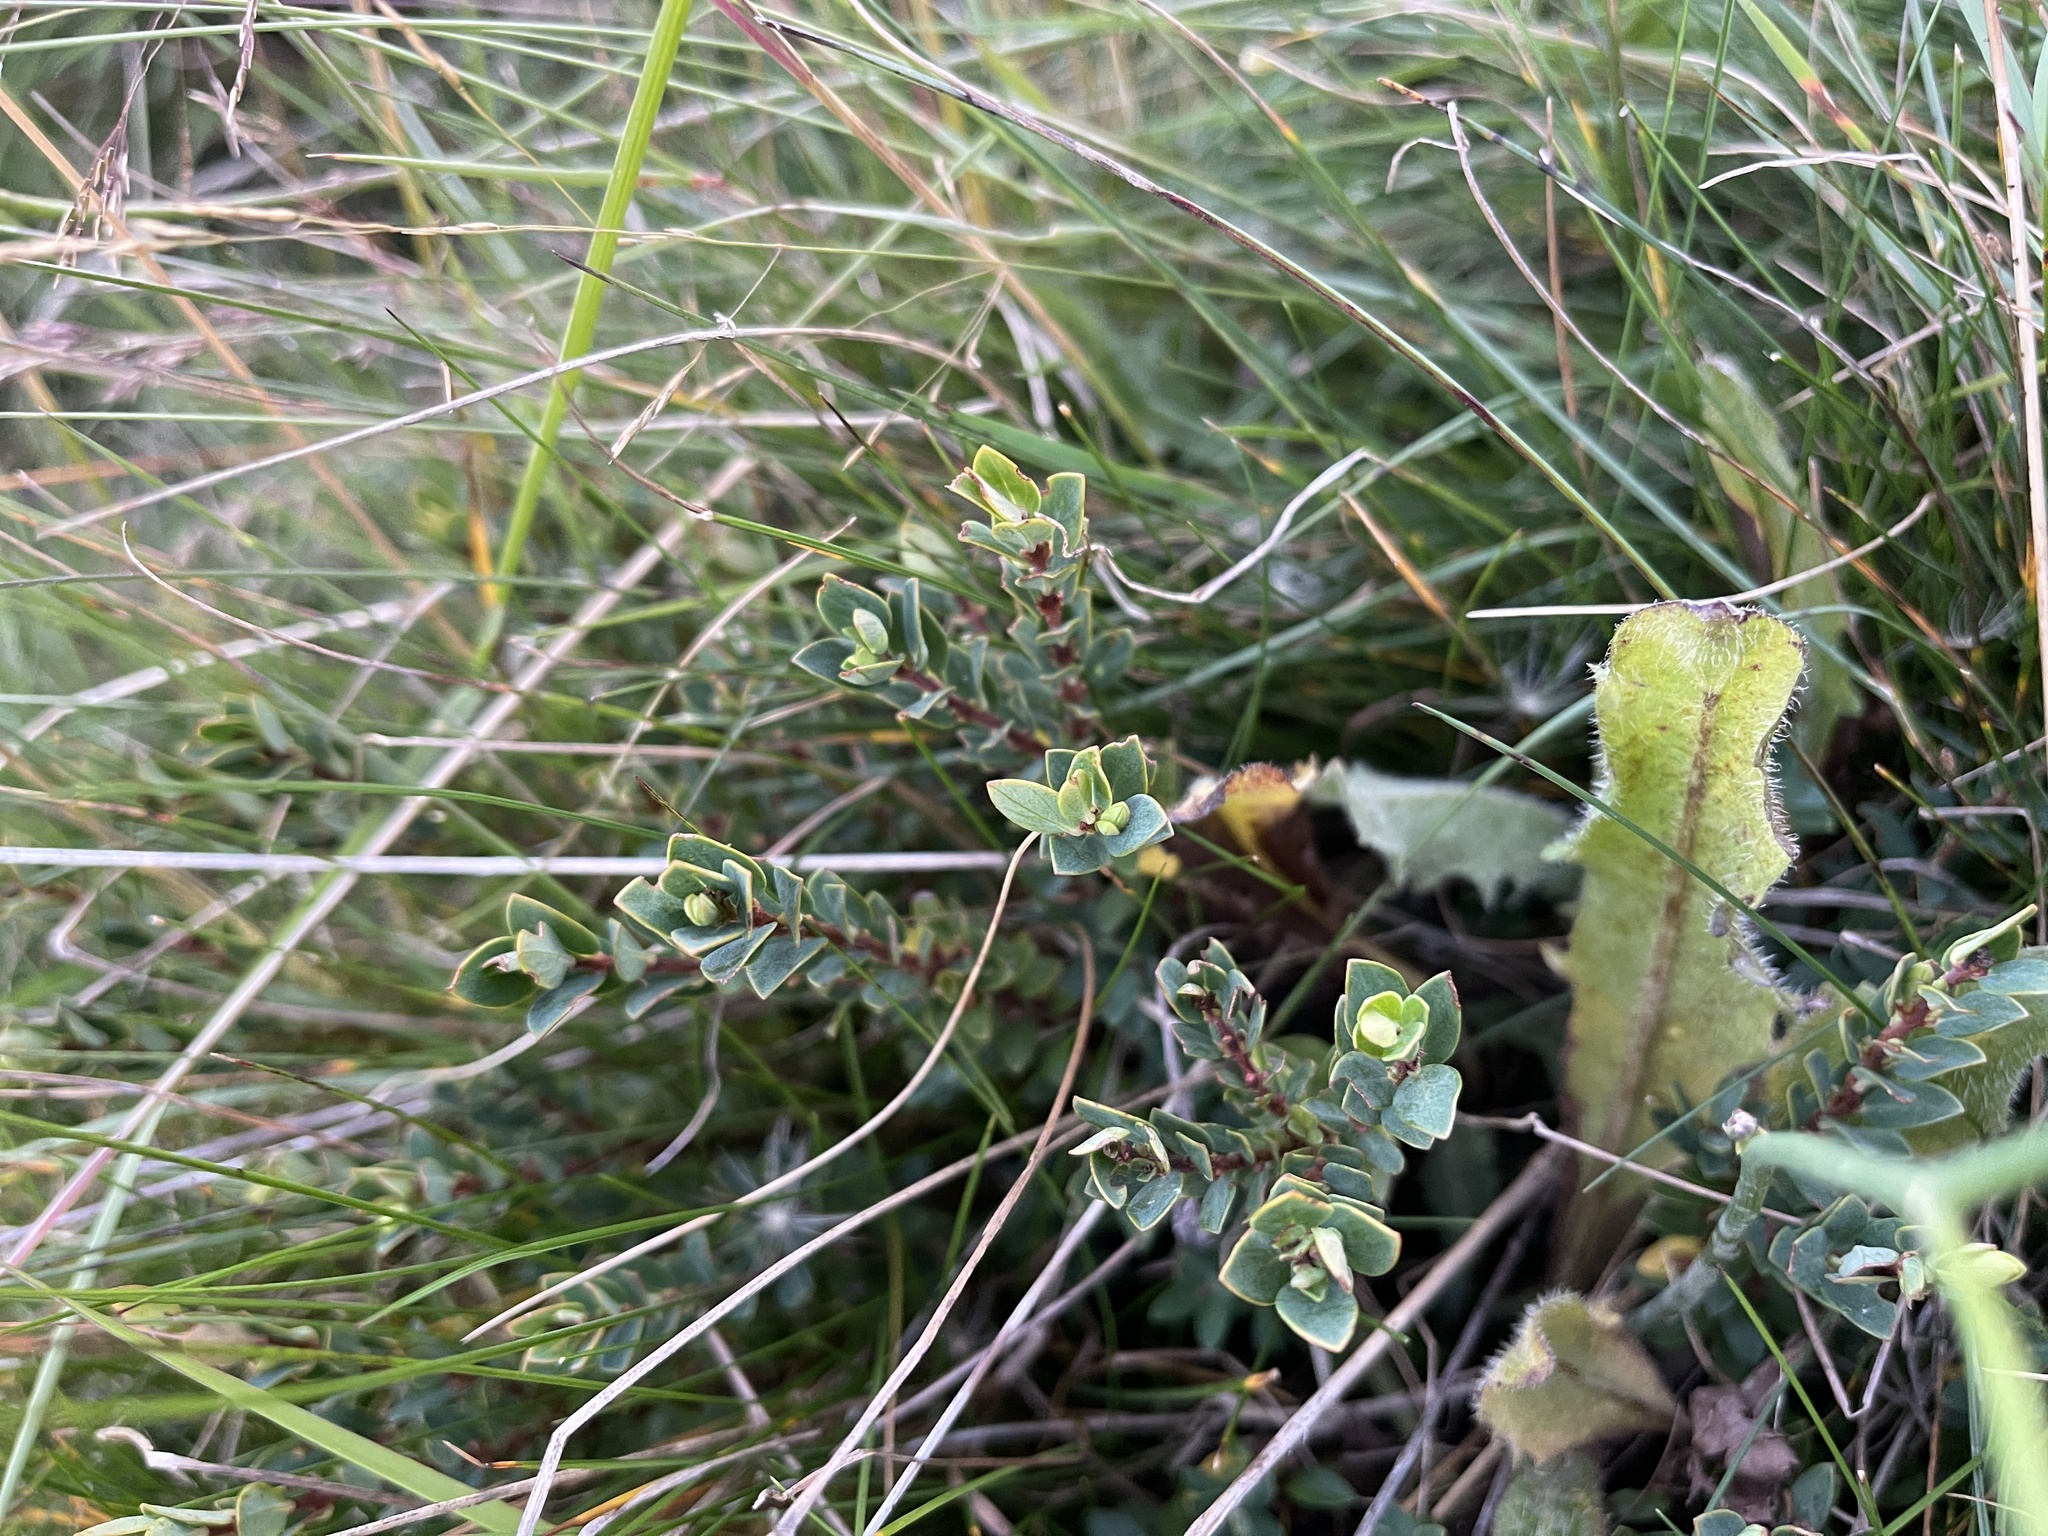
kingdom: Plantae
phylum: Tracheophyta
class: Magnoliopsida
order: Malvales
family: Thymelaeaceae
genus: Pimelea
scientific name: Pimelea alpina
